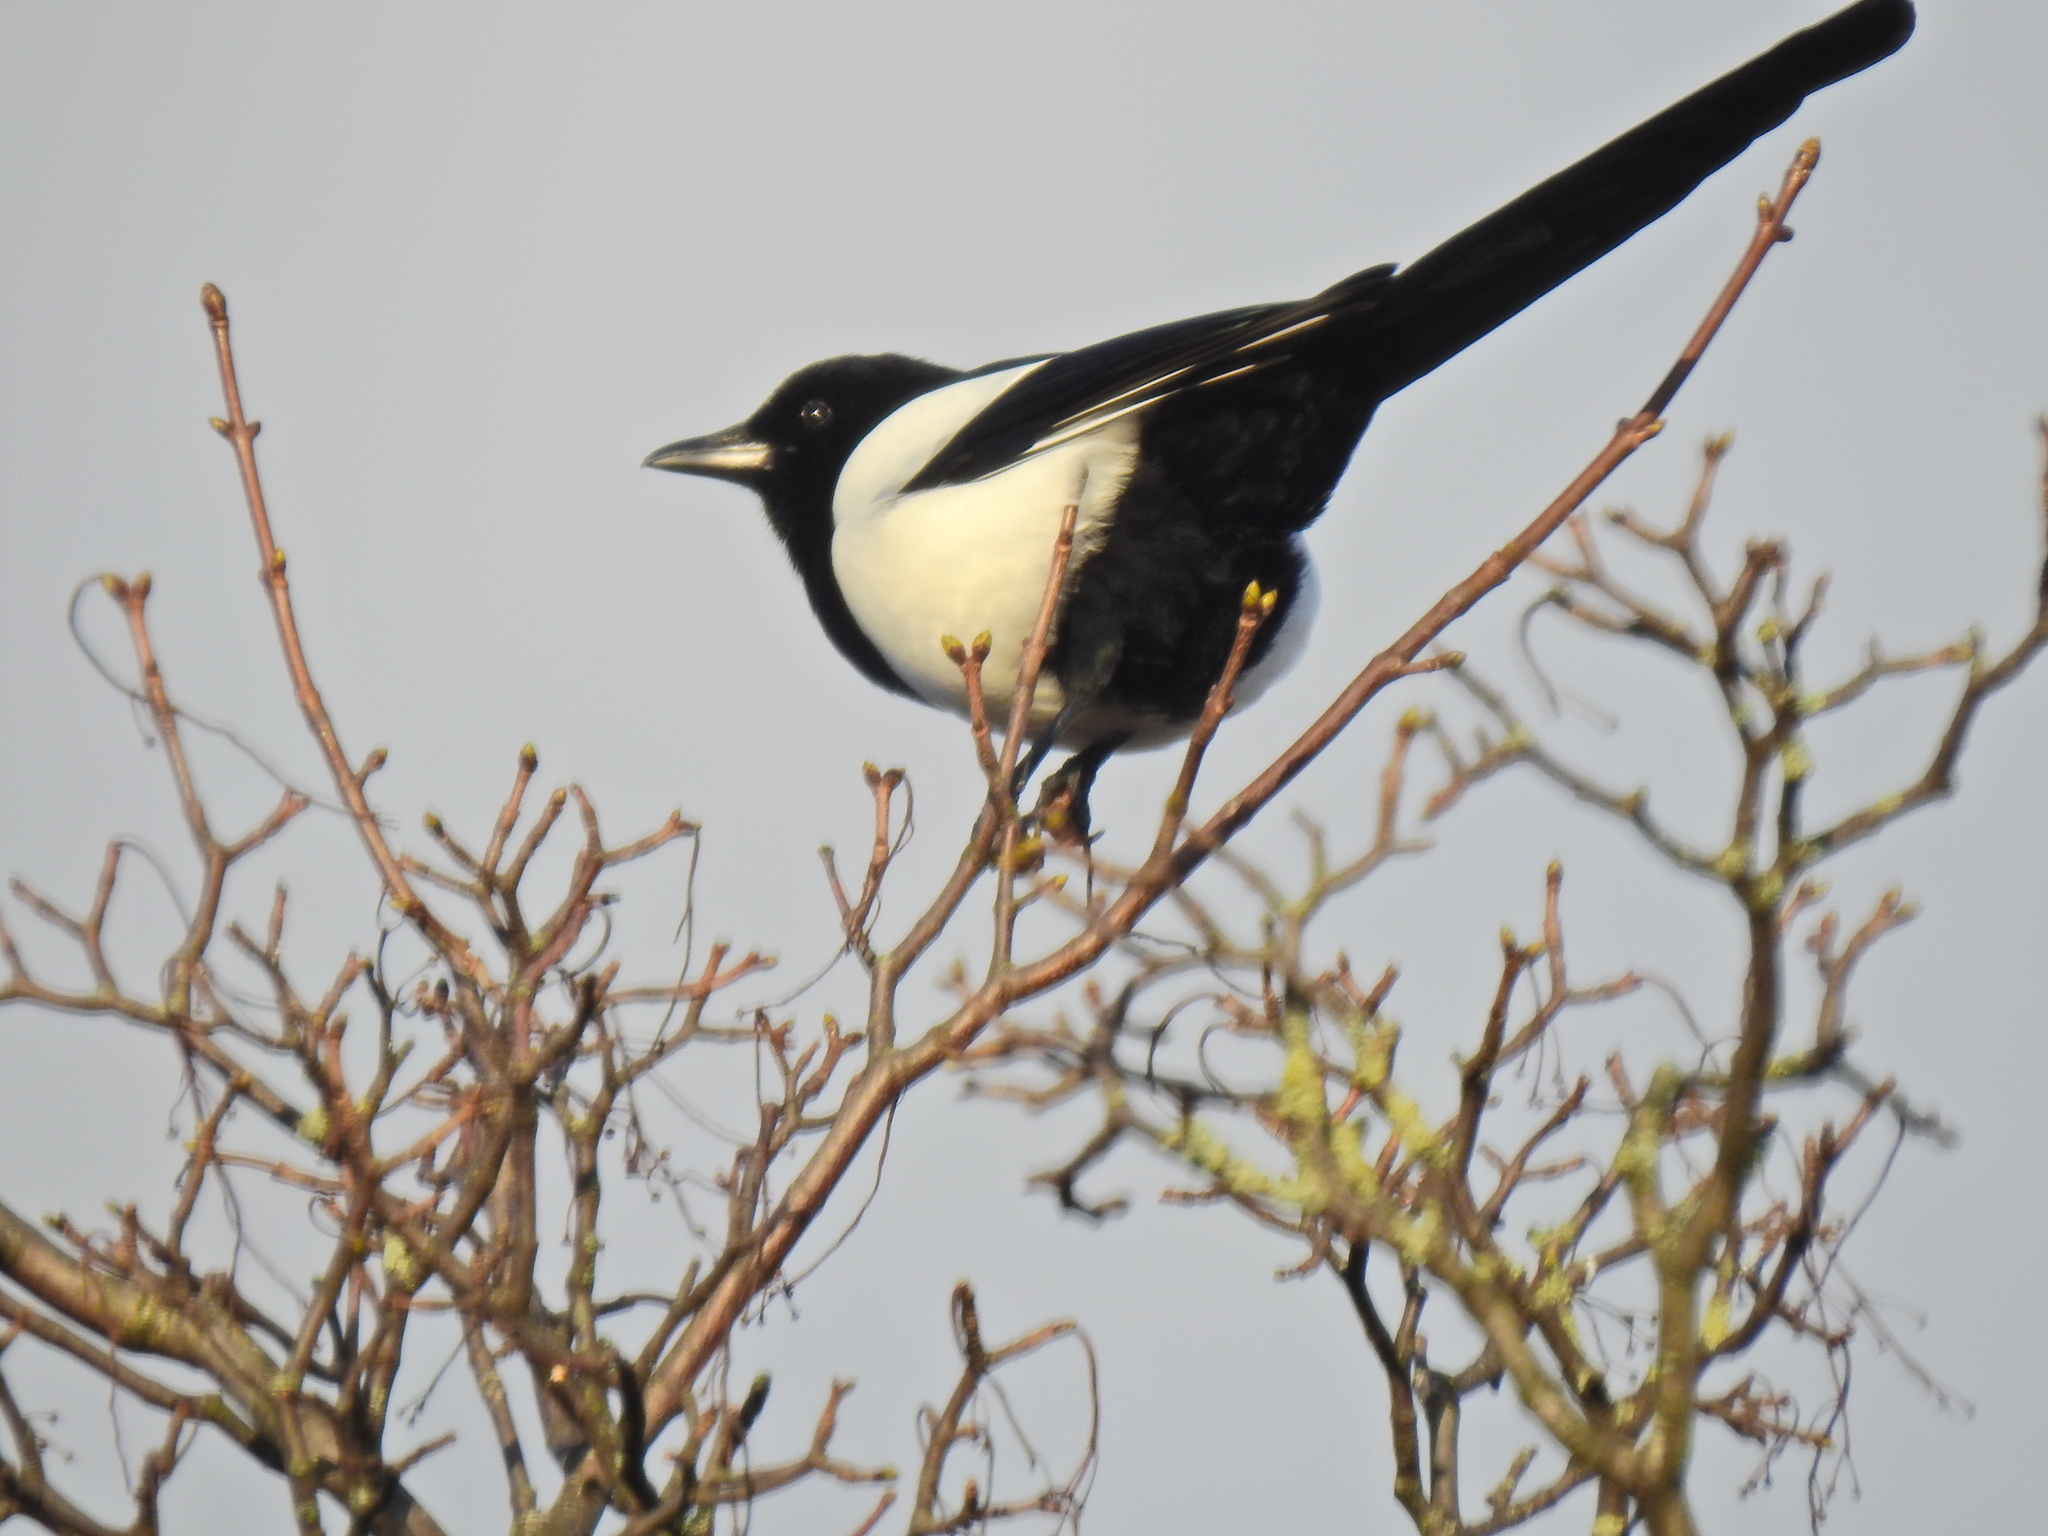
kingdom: Animalia
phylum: Chordata
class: Aves
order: Passeriformes
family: Corvidae
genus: Pica
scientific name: Pica pica
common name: Eurasian magpie
